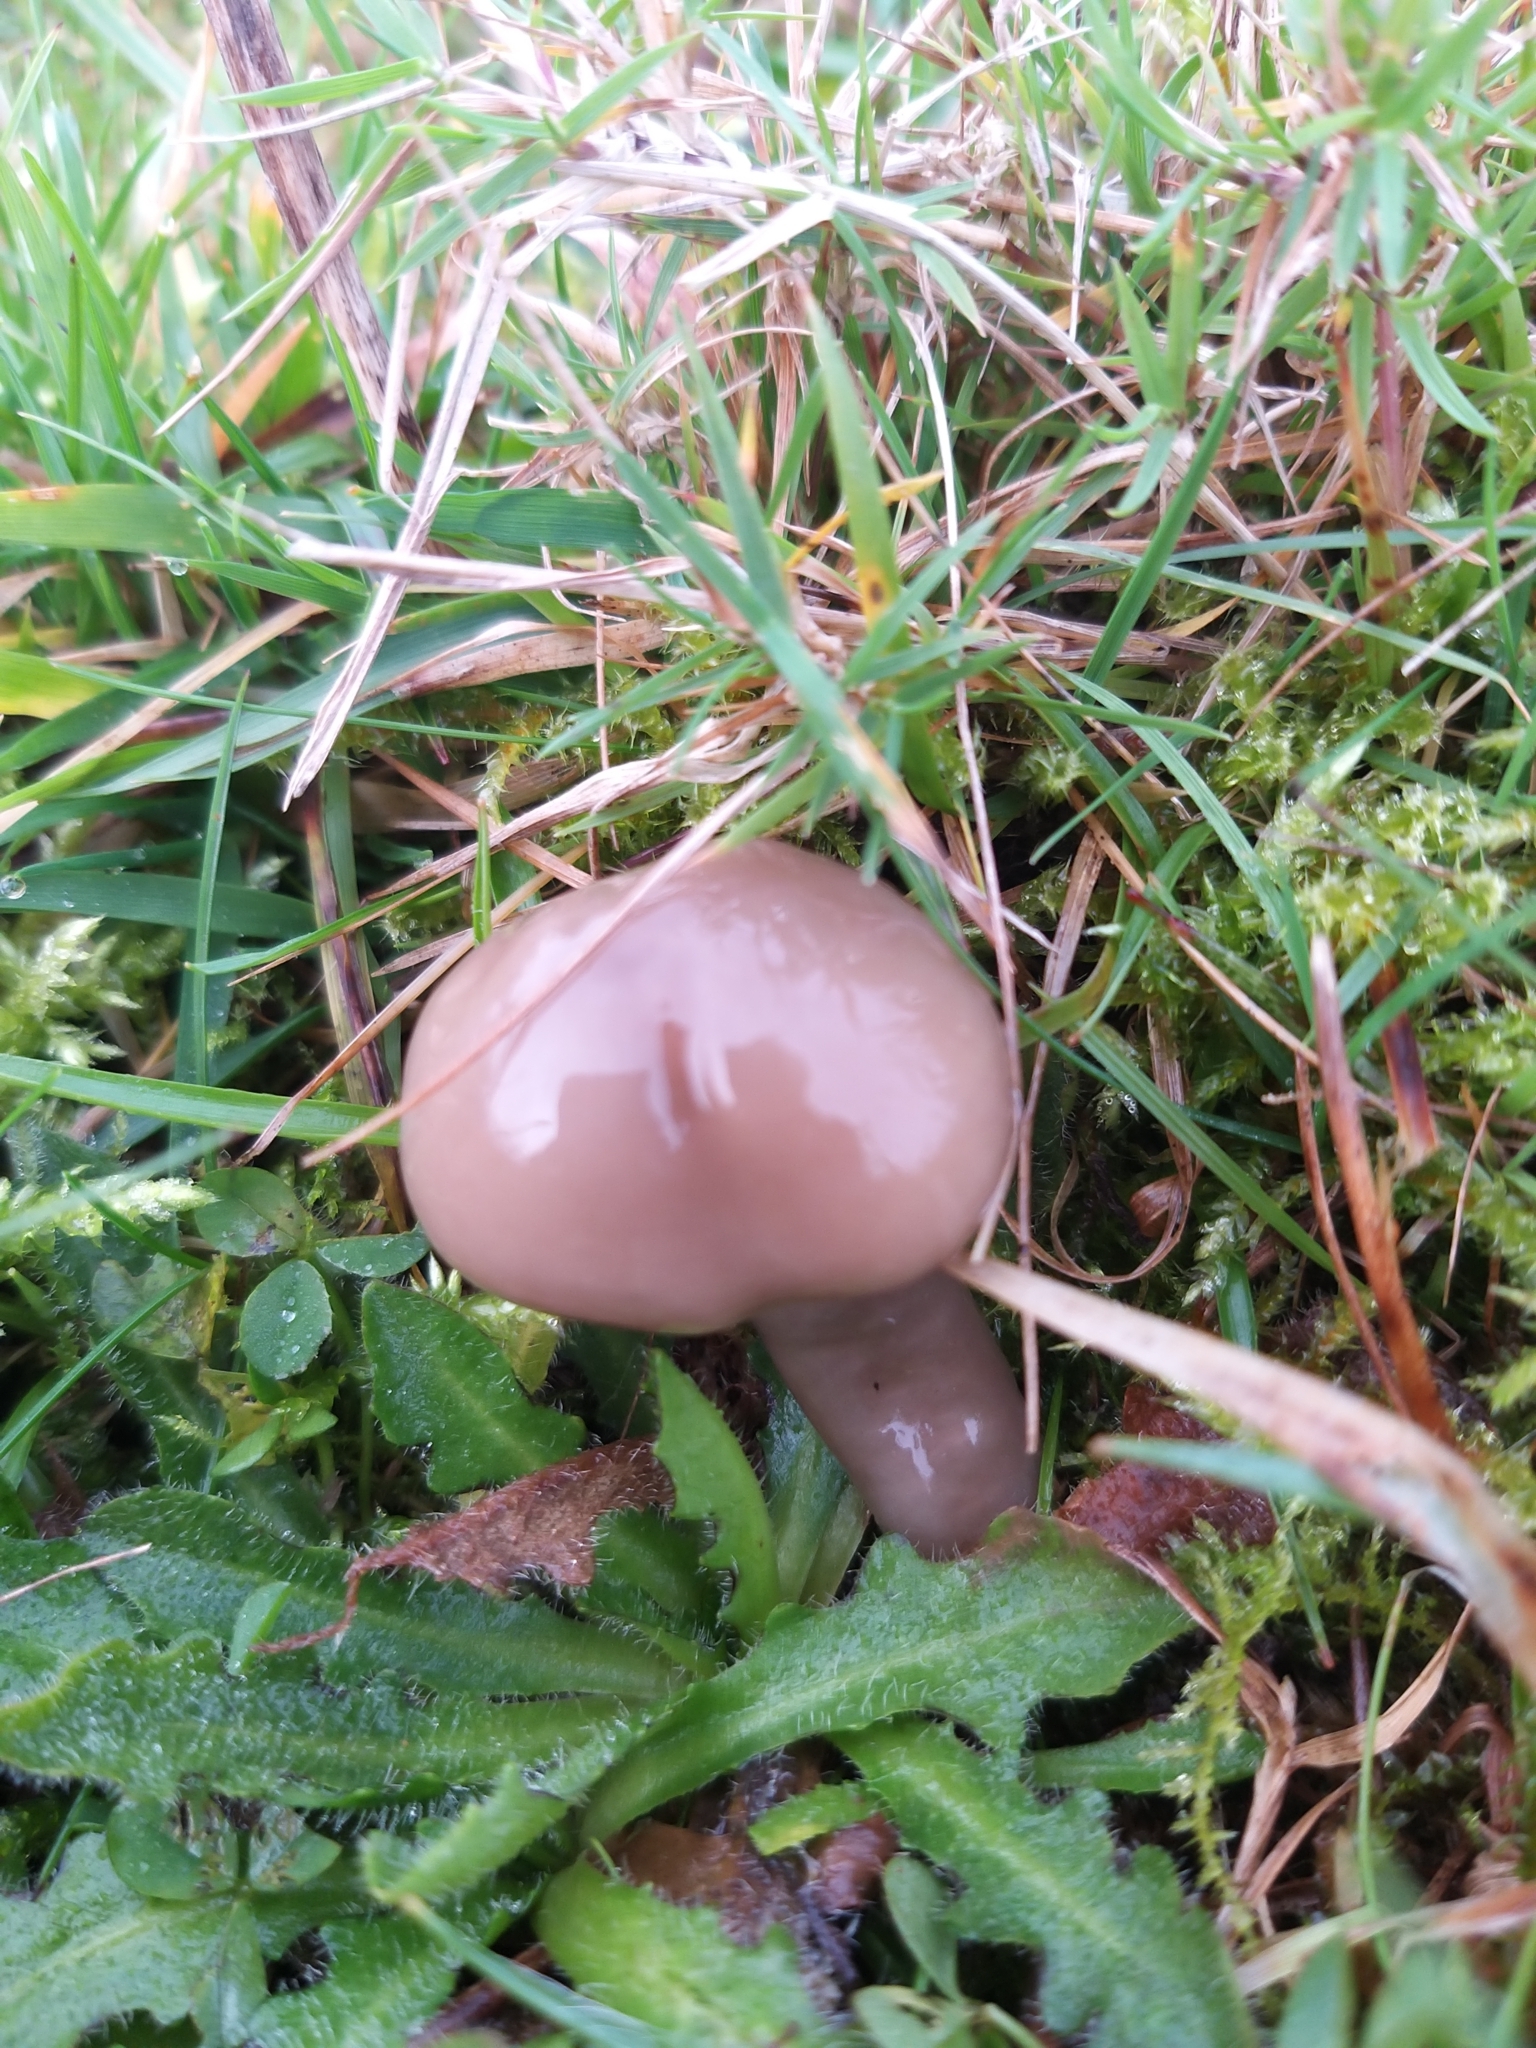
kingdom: Fungi
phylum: Basidiomycota
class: Agaricomycetes
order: Agaricales
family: Hygrophoraceae
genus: Gliophorus
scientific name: Gliophorus irrigatus
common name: Slimy waxcap
